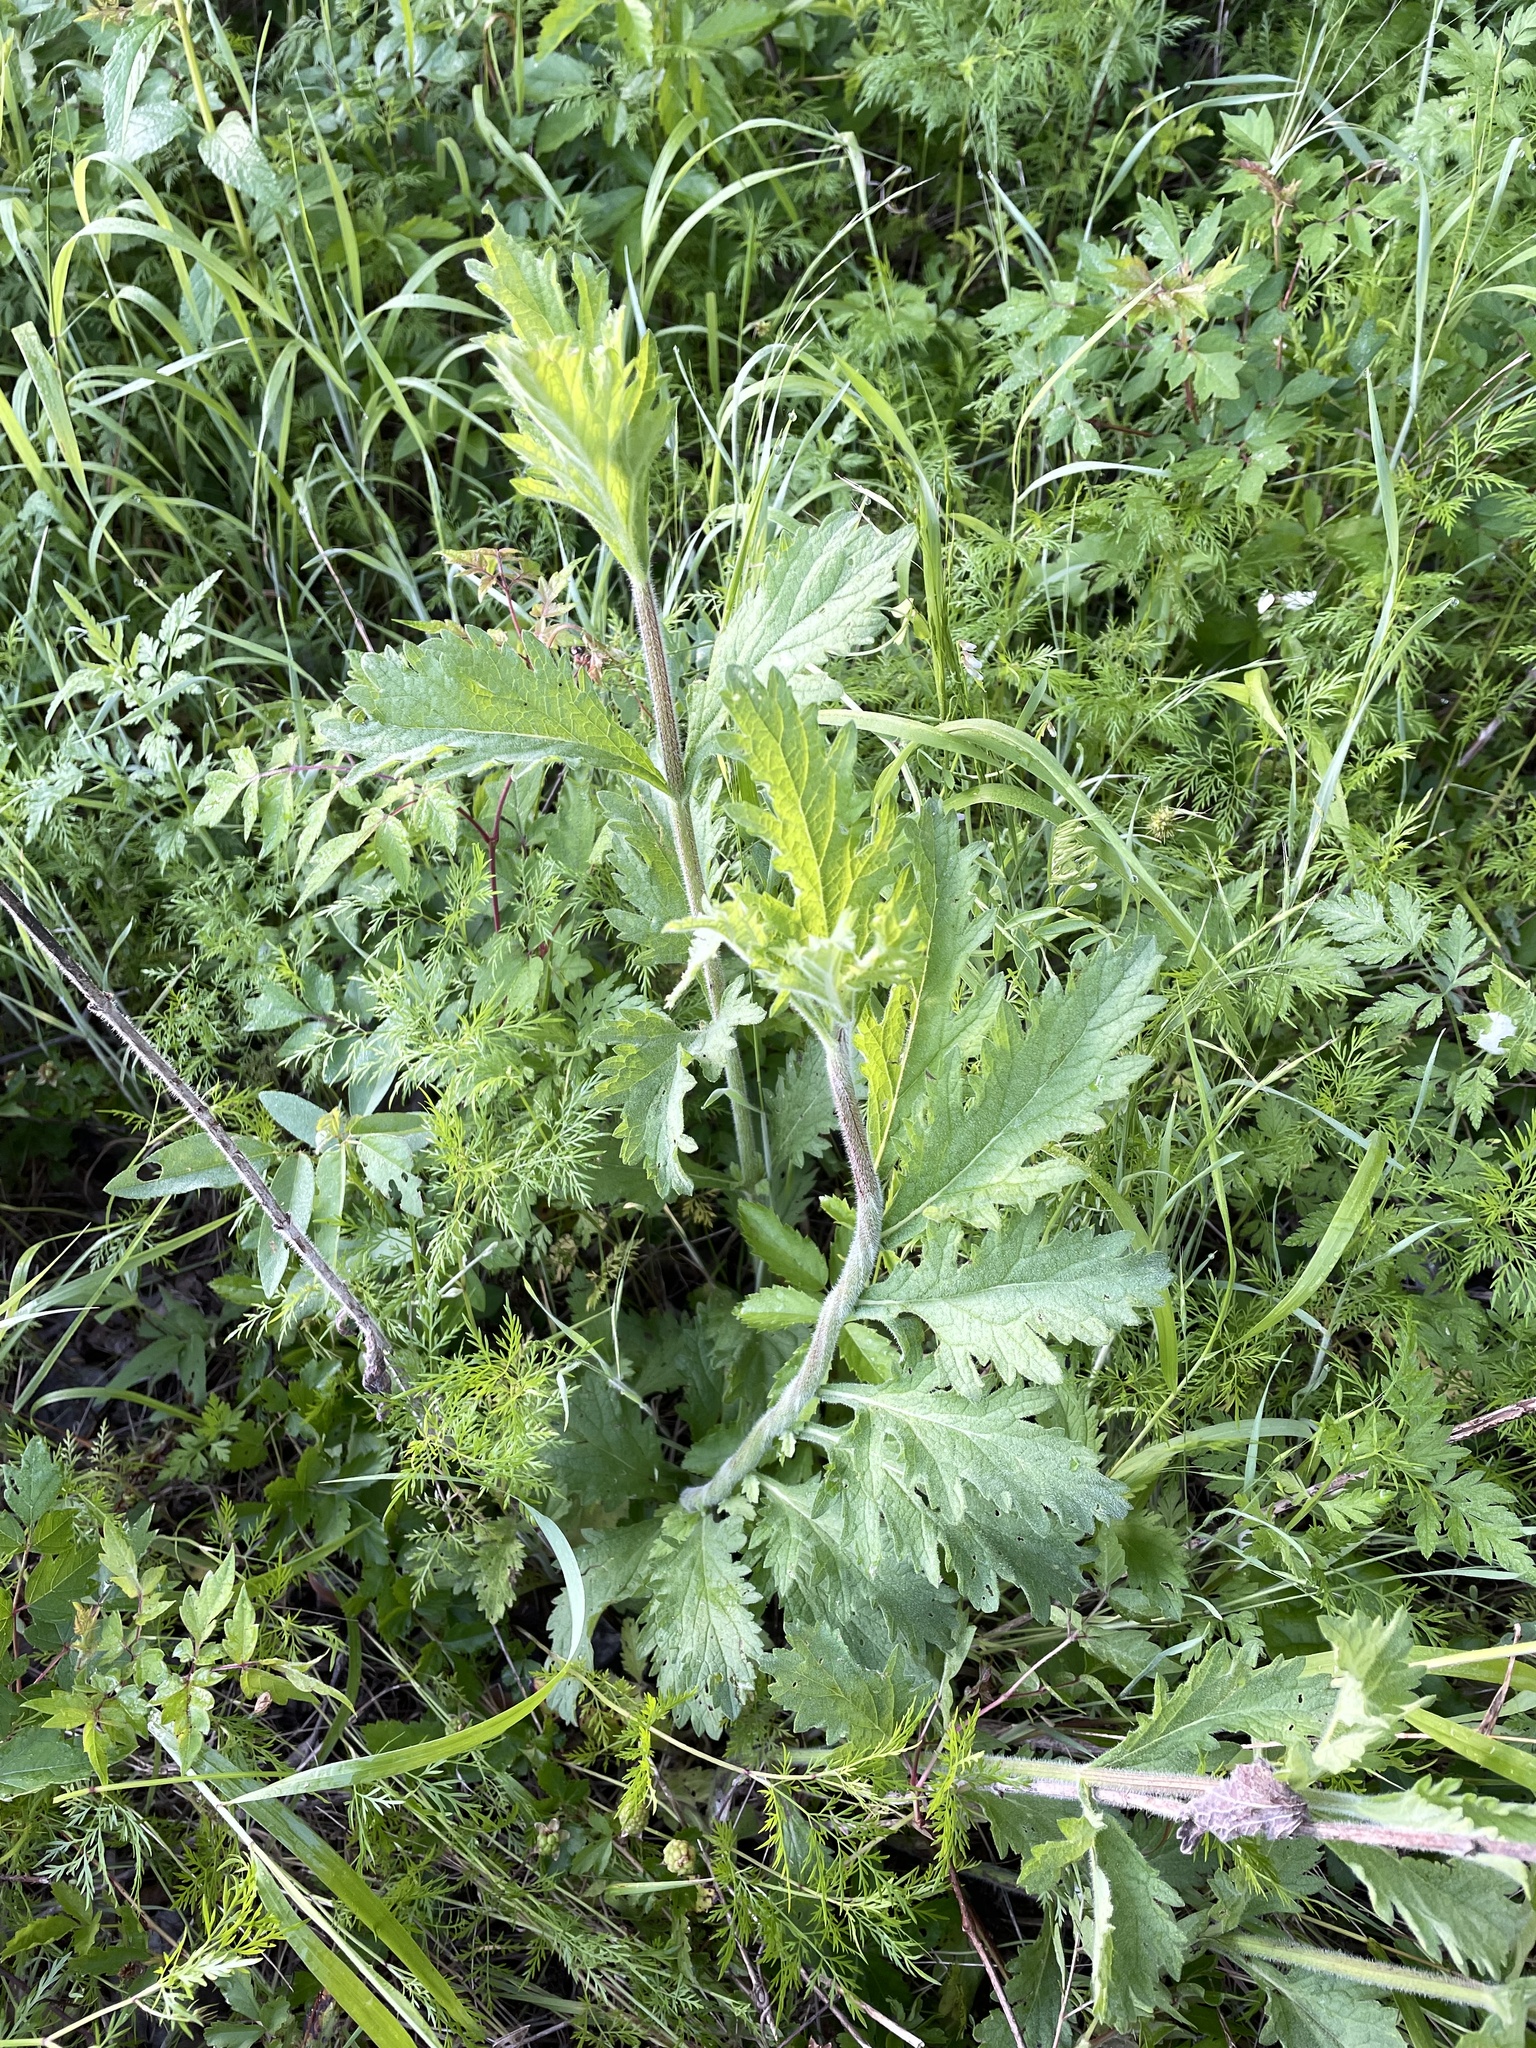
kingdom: Plantae
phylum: Tracheophyta
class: Magnoliopsida
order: Lamiales
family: Verbenaceae
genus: Verbena
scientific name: Verbena xutha
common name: Gulf vervain
